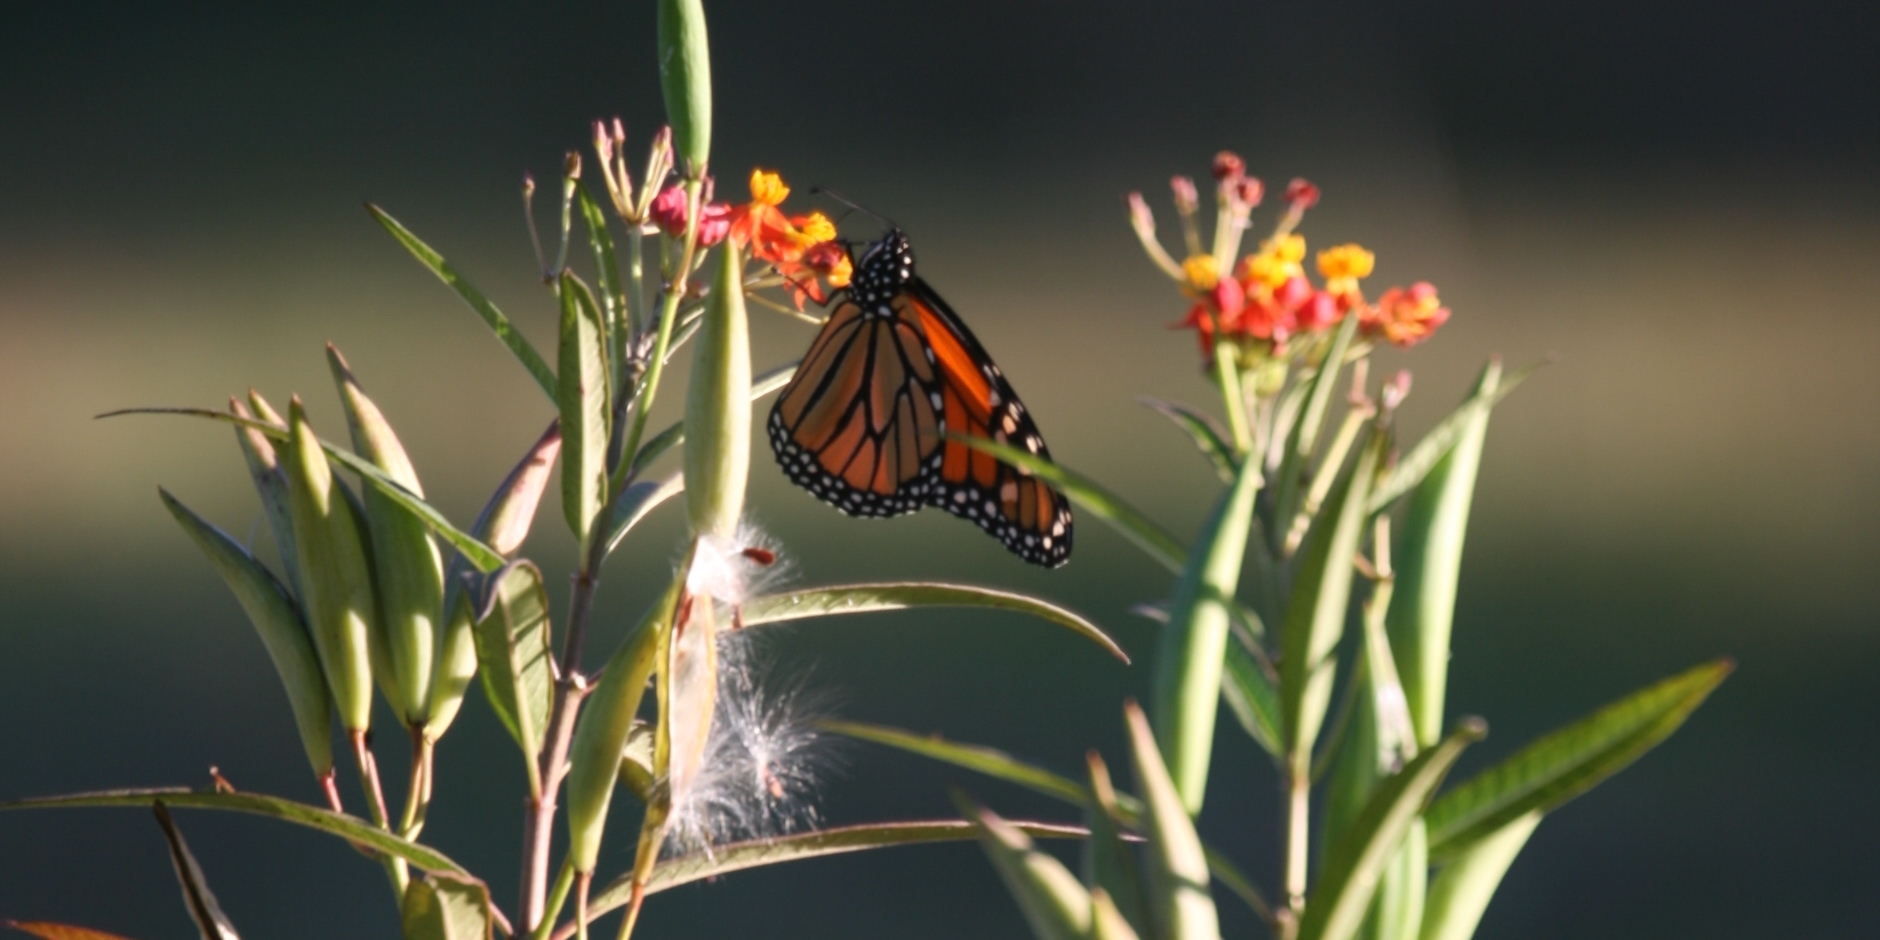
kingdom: Animalia
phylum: Arthropoda
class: Insecta
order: Lepidoptera
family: Nymphalidae
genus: Danaus
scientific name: Danaus plexippus
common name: Monarch
